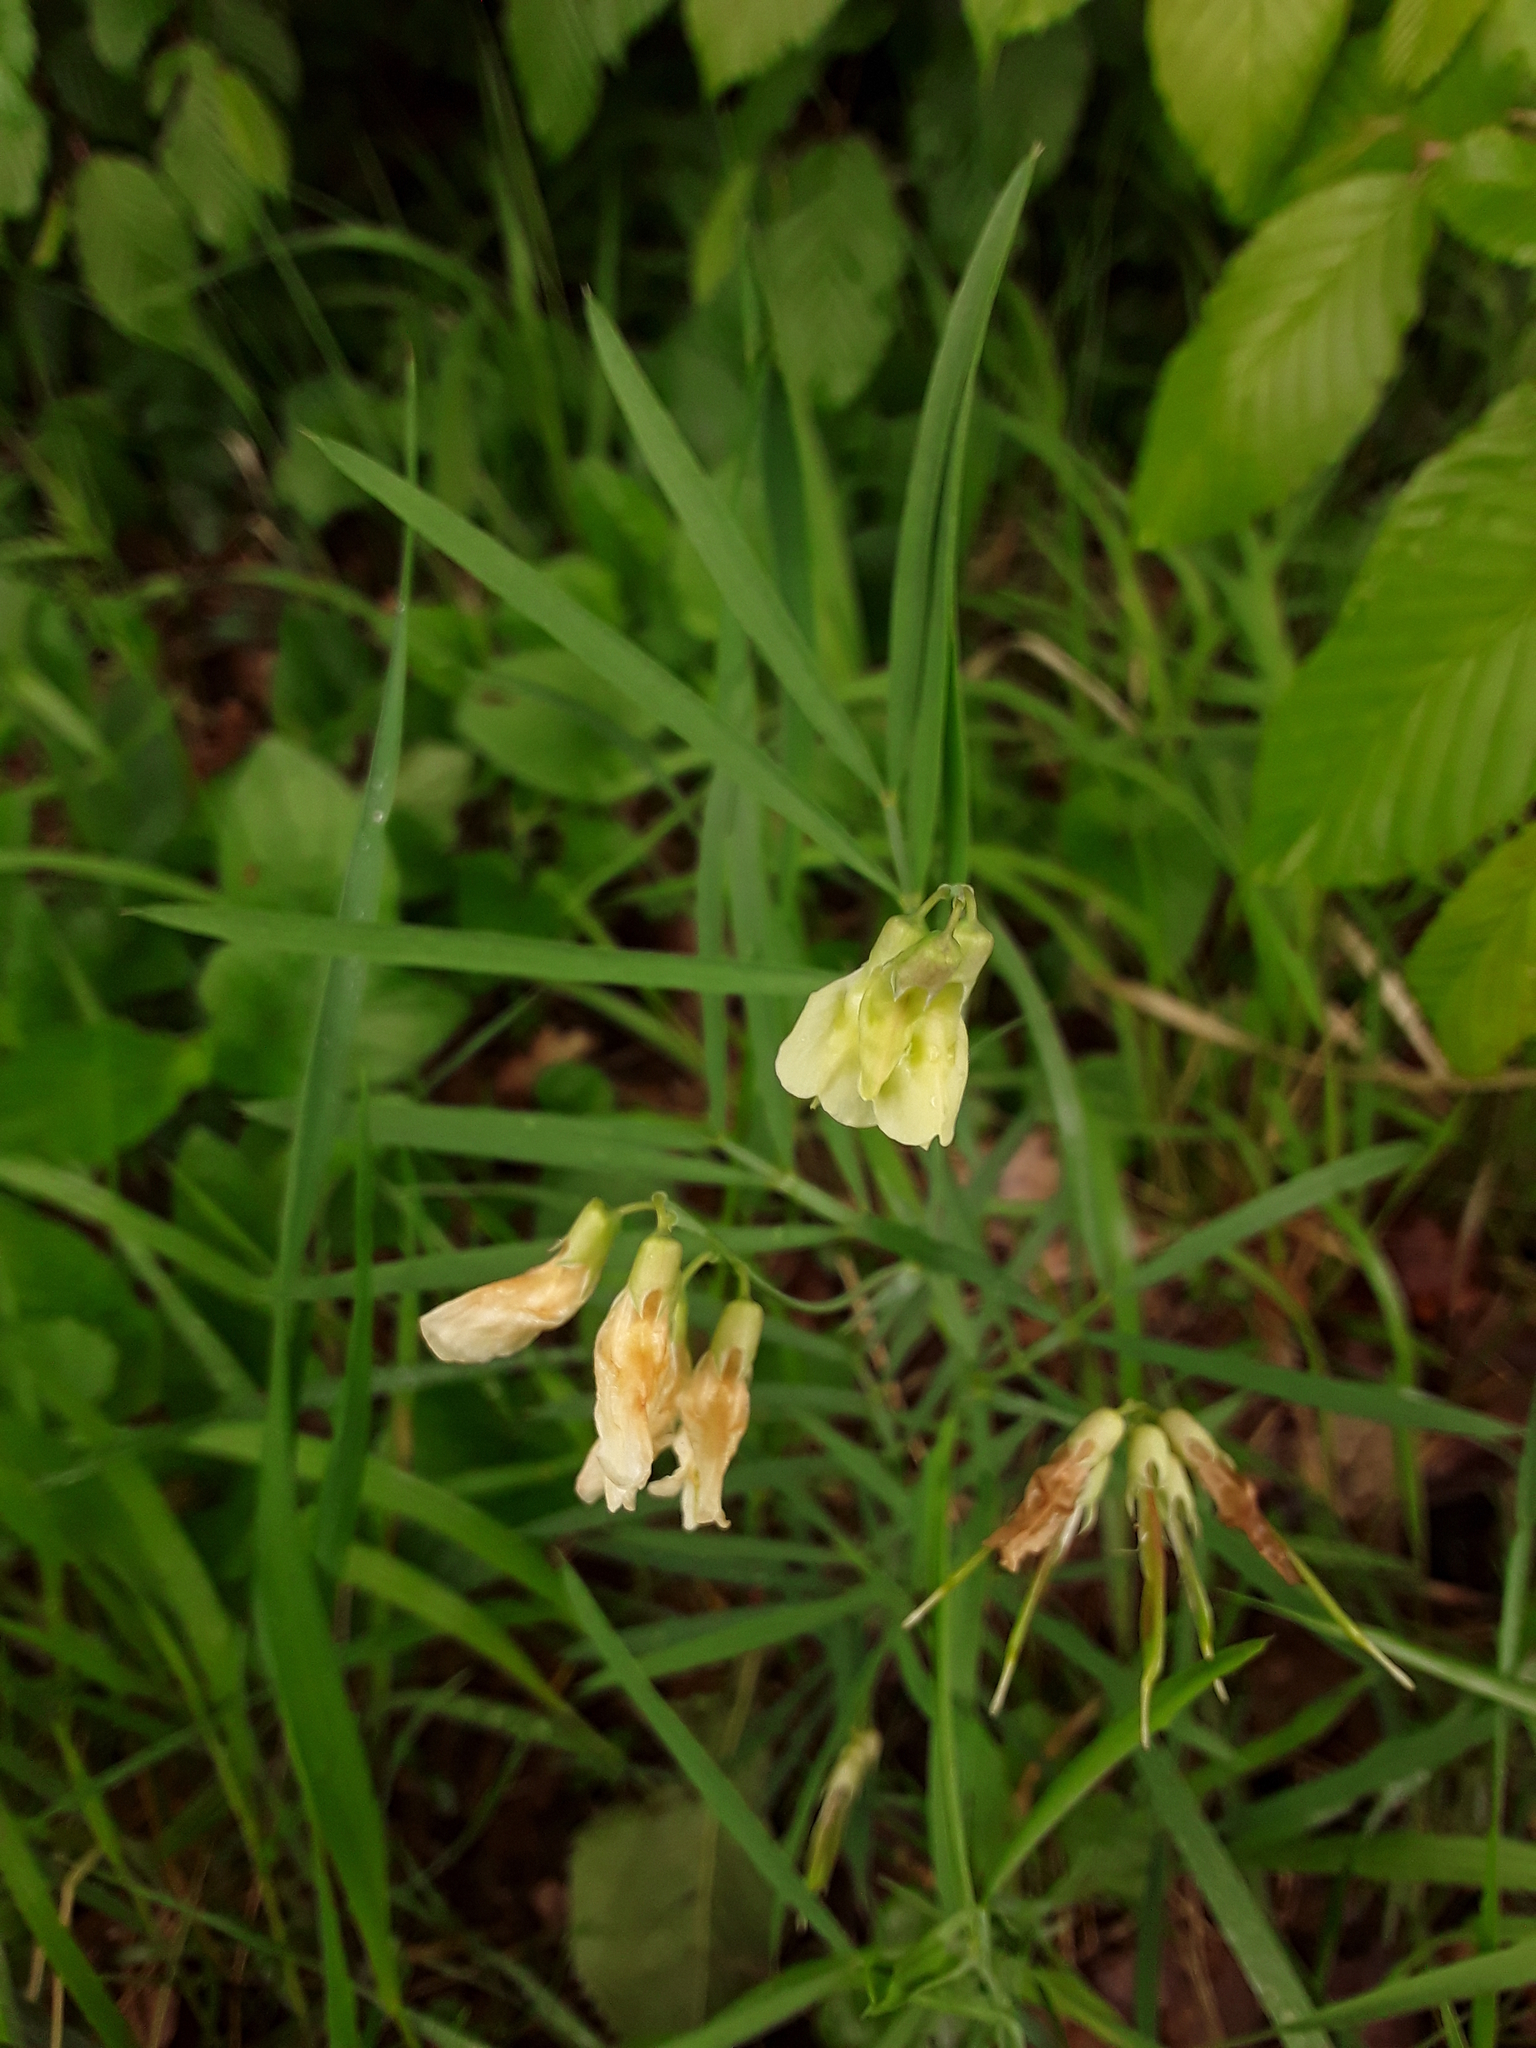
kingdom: Plantae
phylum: Tracheophyta
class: Magnoliopsida
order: Fabales
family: Fabaceae
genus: Lathyrus
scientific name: Lathyrus pannonicus
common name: Pea
